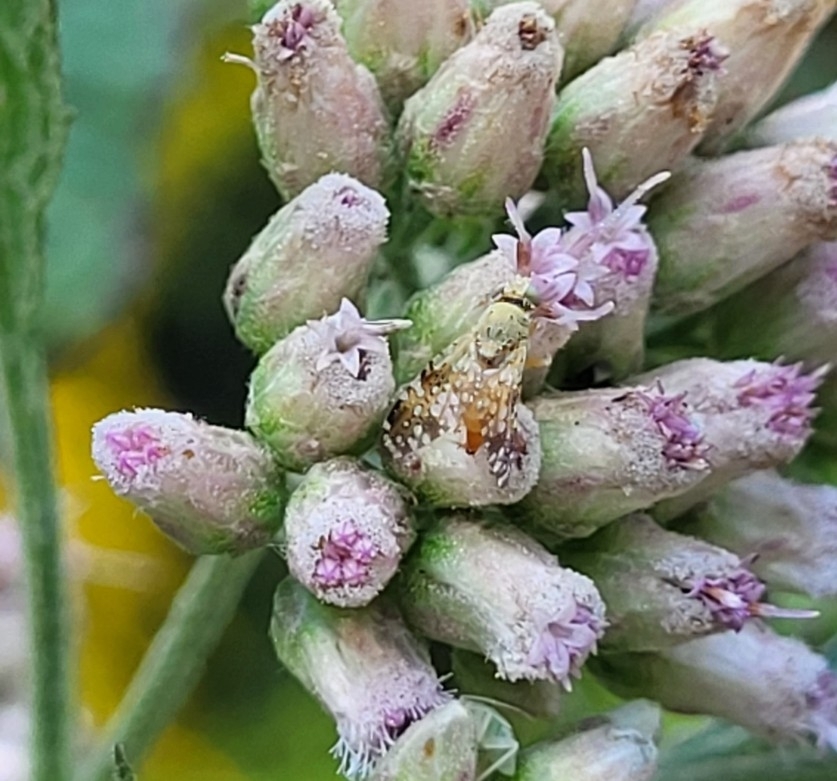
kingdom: Animalia
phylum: Arthropoda
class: Insecta
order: Diptera
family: Tephritidae
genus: Acinia
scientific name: Acinia picturata
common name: Sourbush seed fly
